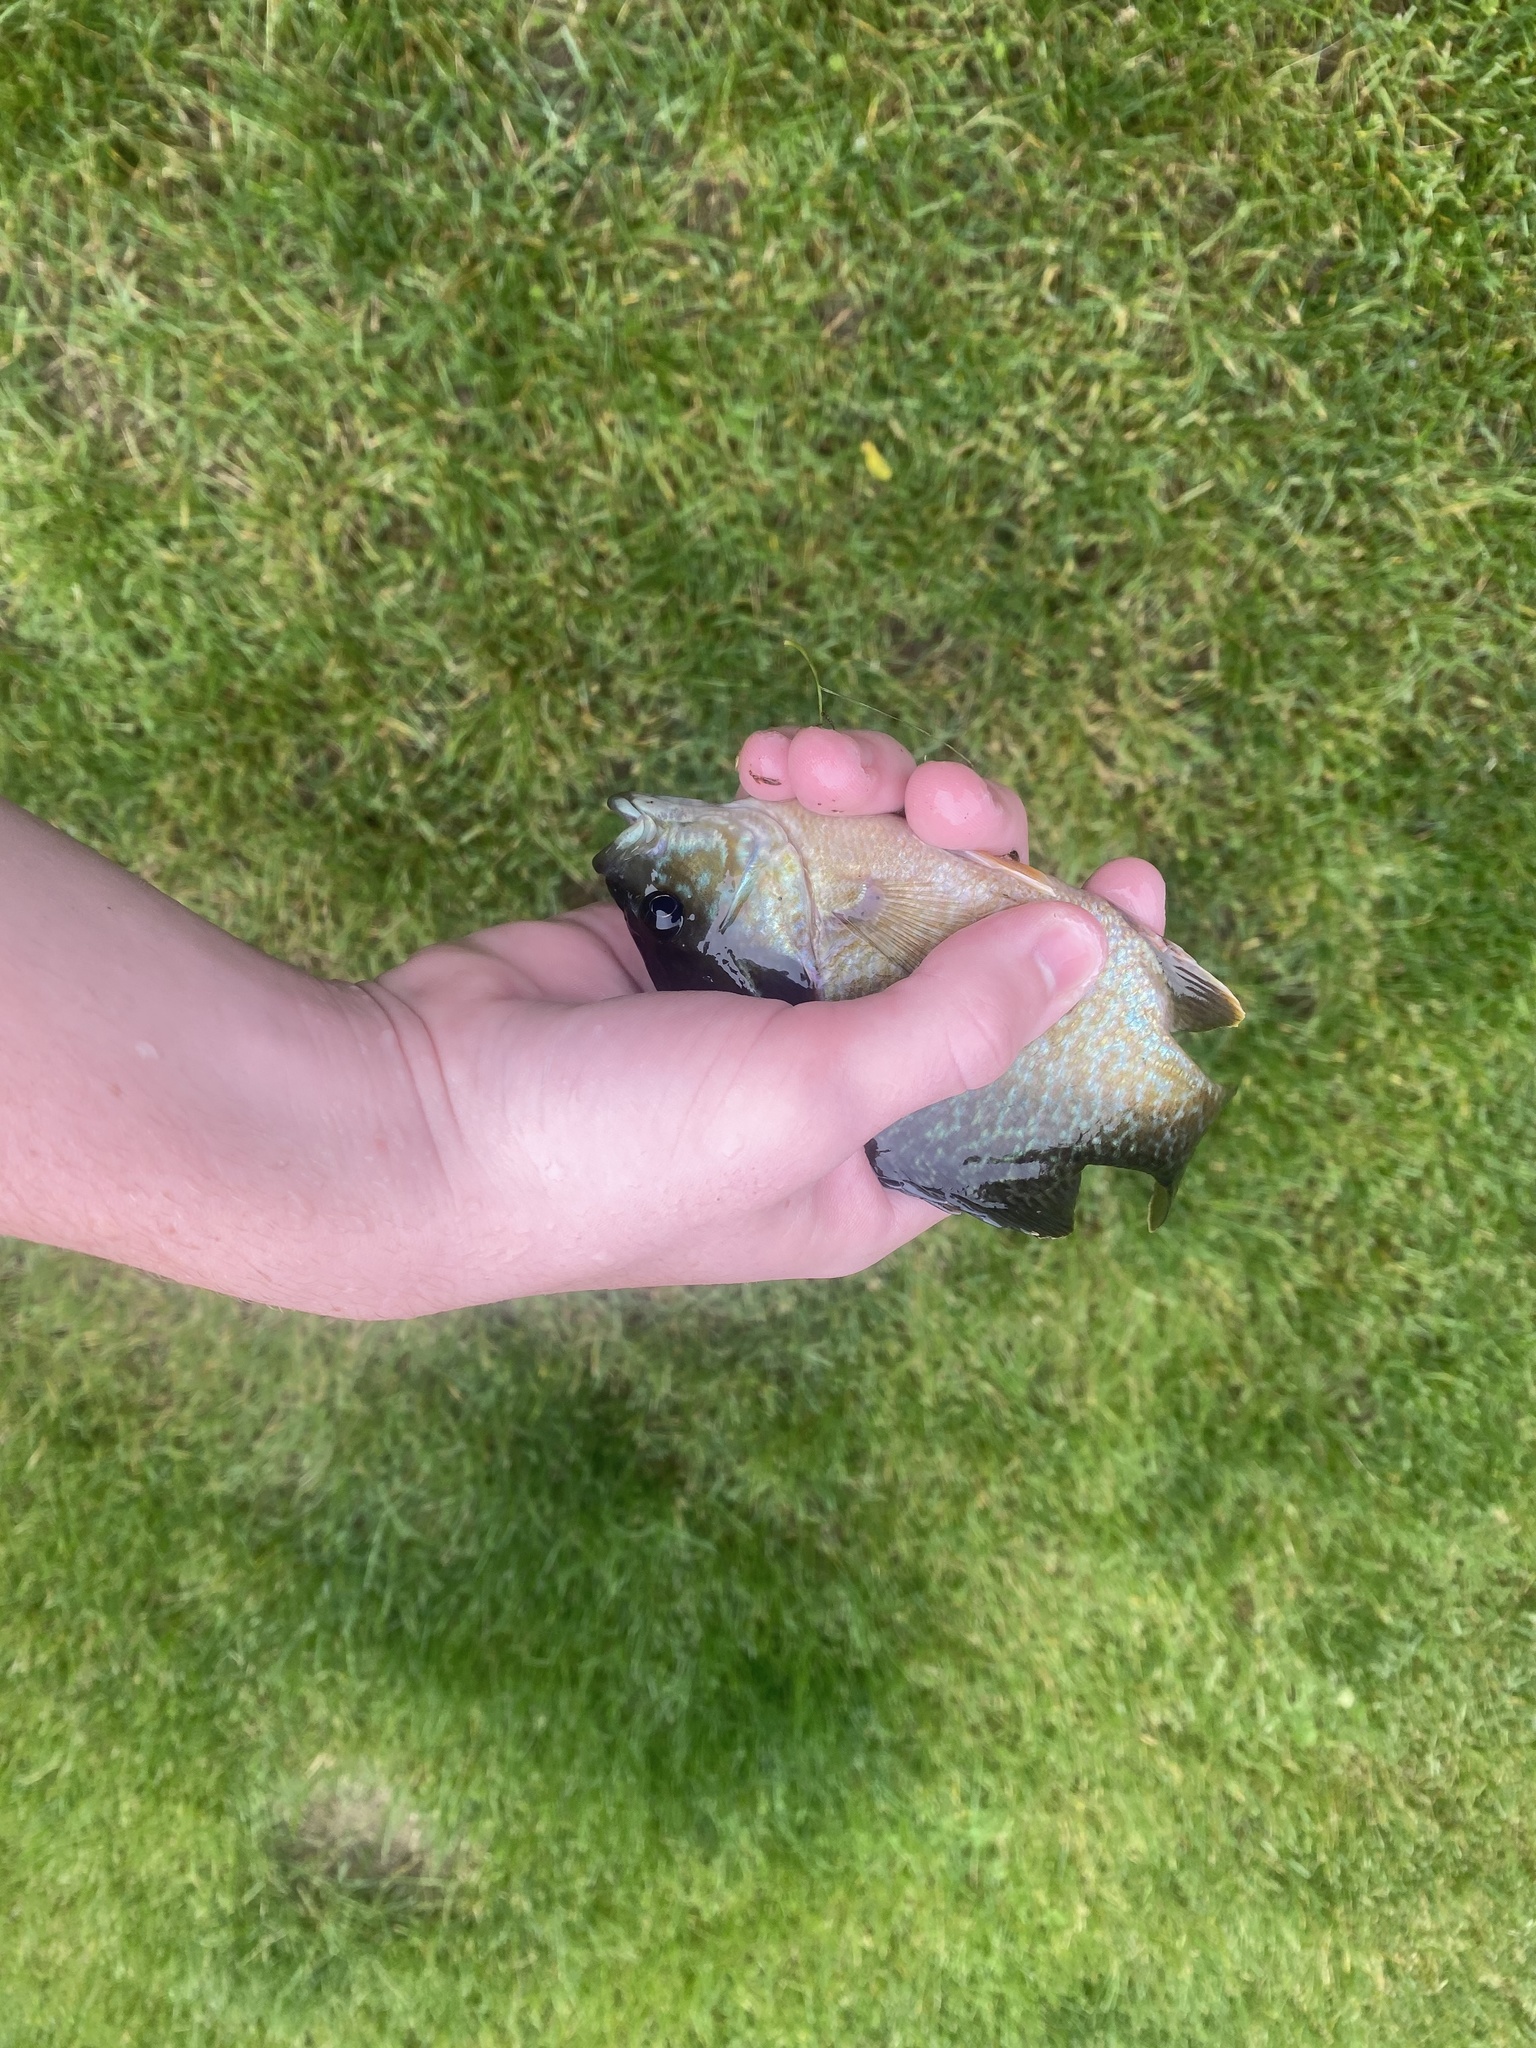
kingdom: Animalia
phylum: Chordata
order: Perciformes
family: Centrarchidae
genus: Lepomis
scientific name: Lepomis
